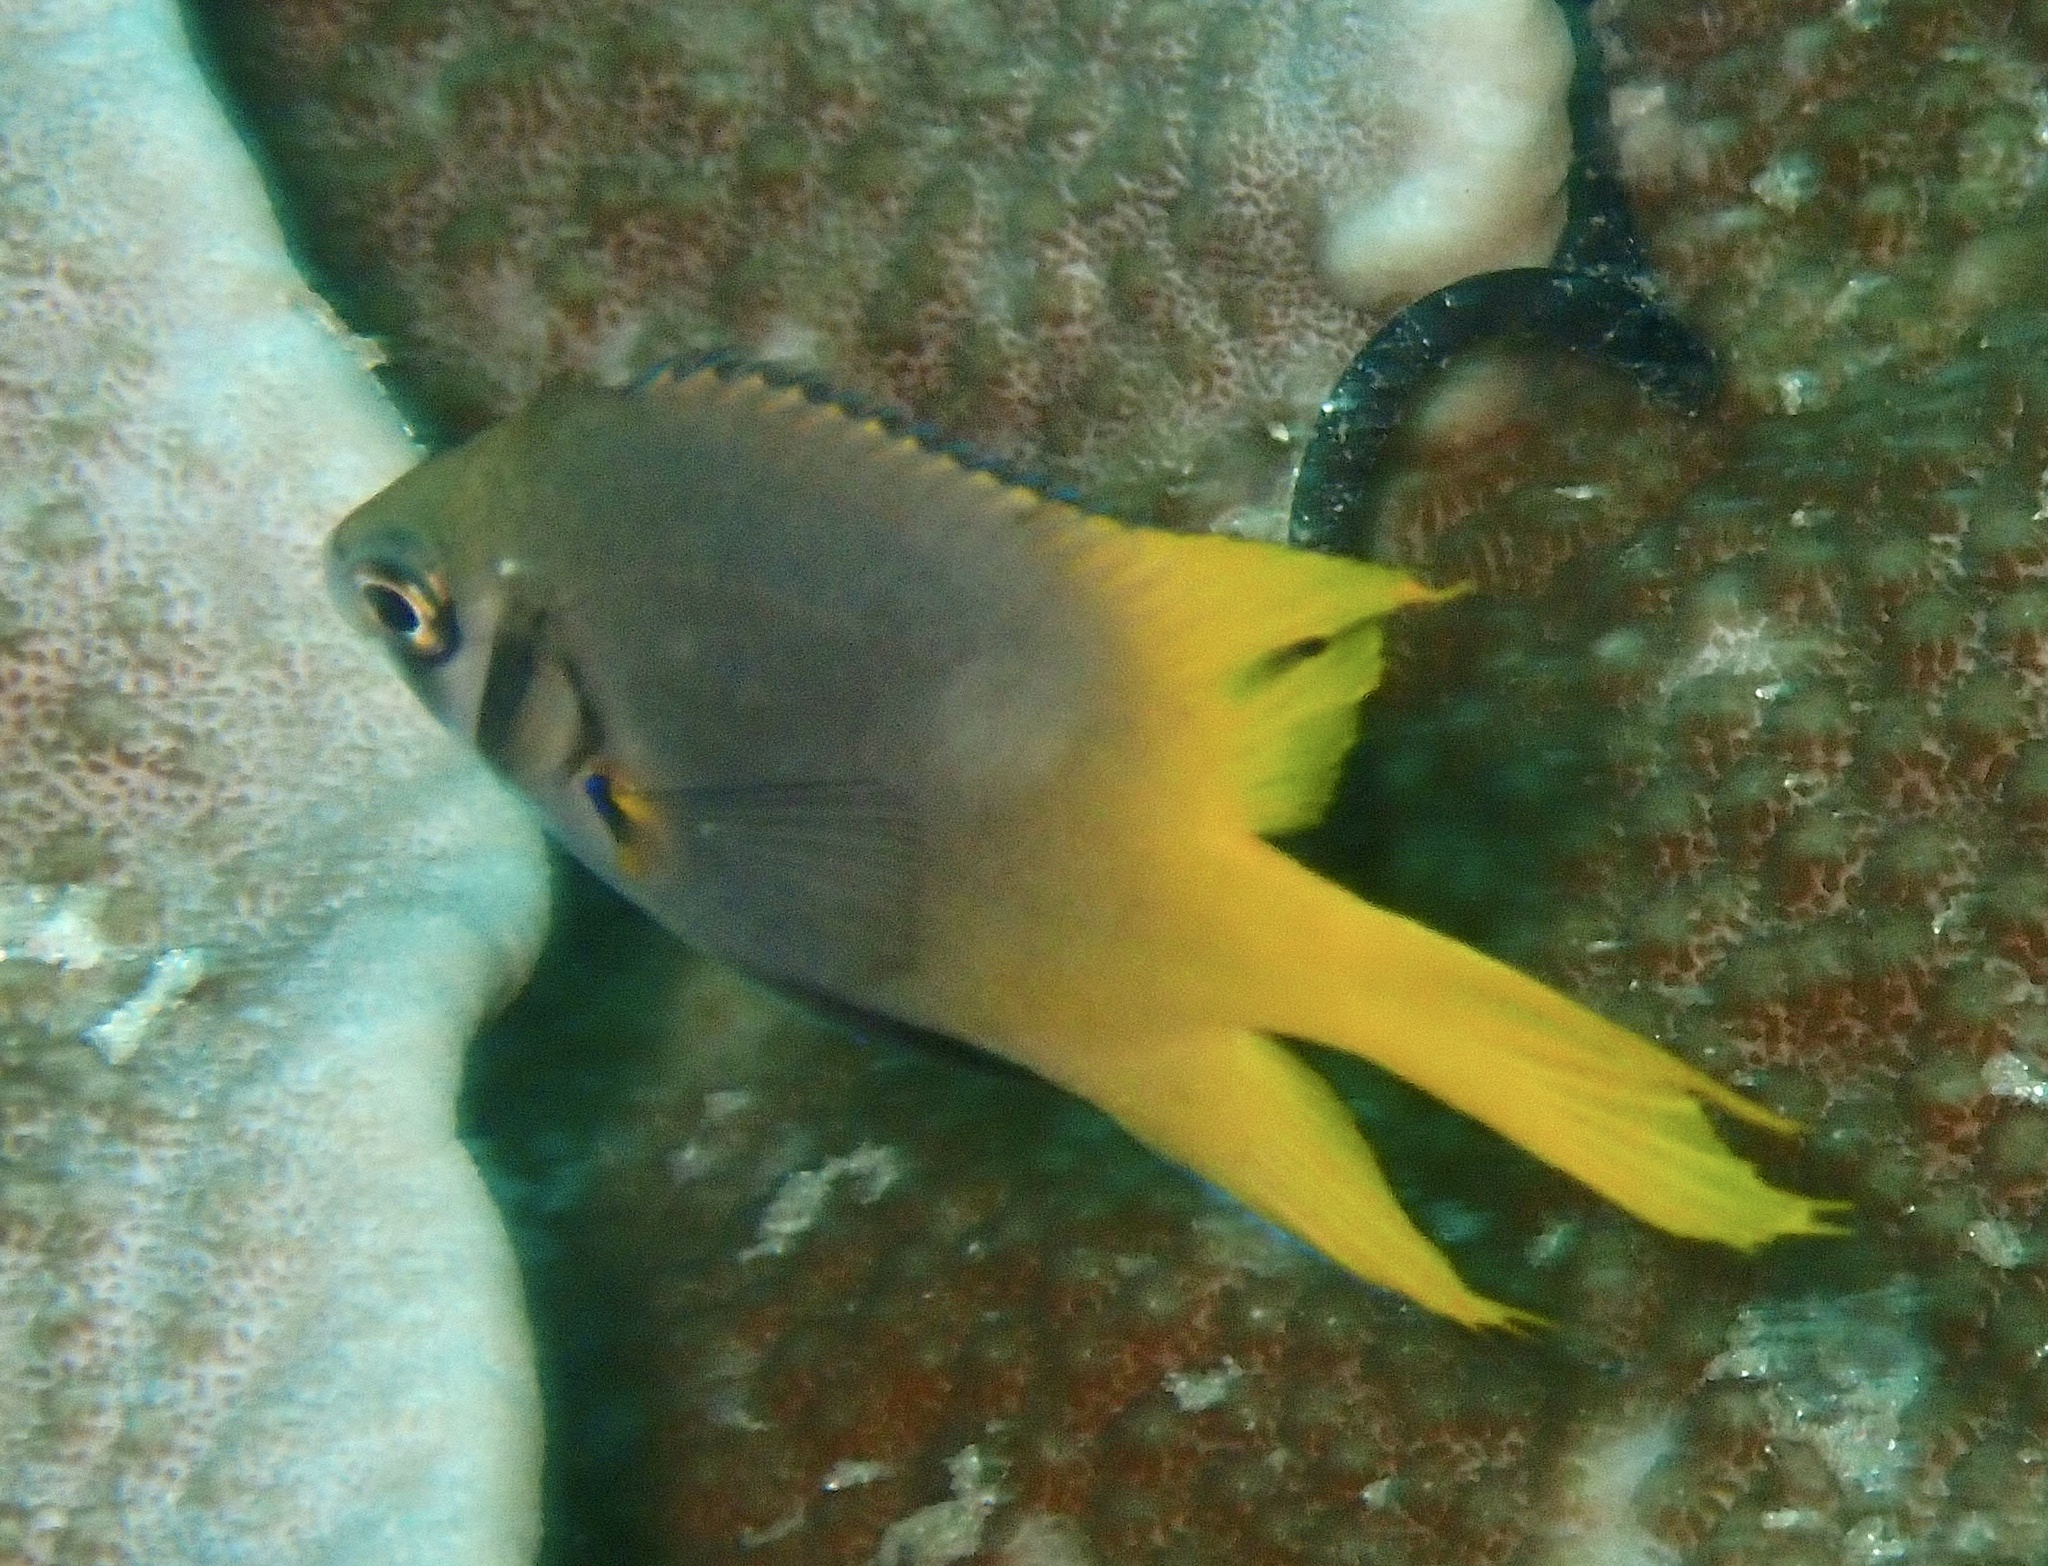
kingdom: Animalia
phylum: Chordata
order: Perciformes
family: Pomacentridae
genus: Neoglyphidodon
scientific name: Neoglyphidodon nigroris
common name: Behn's damsel
